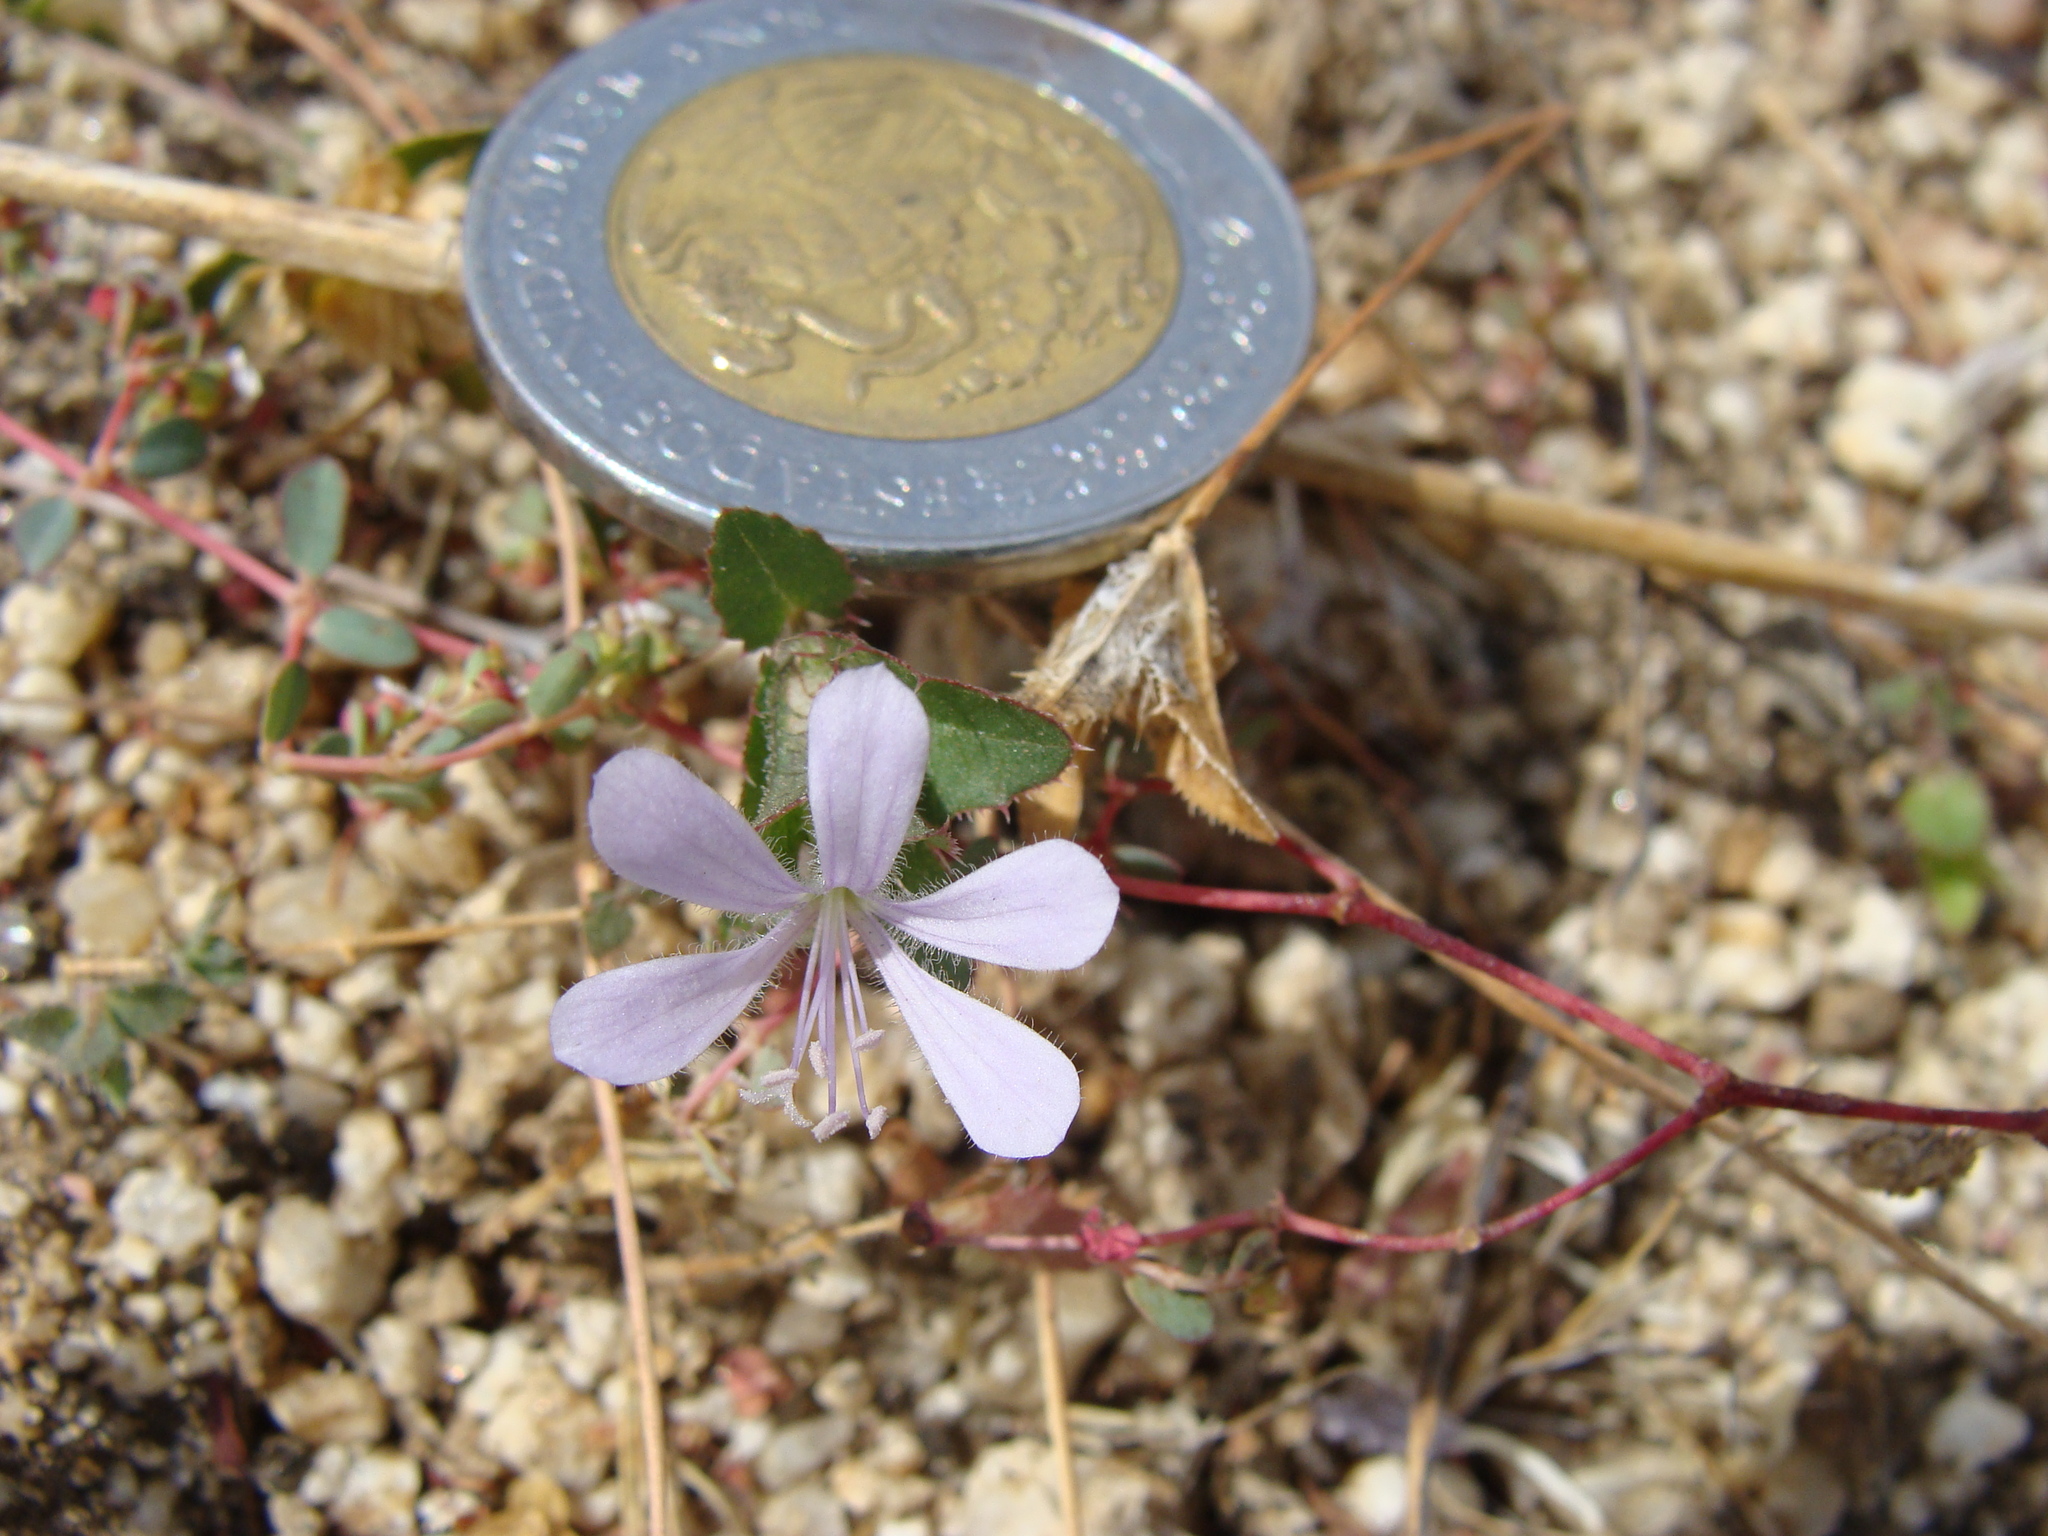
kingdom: Plantae
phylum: Tracheophyta
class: Magnoliopsida
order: Ericales
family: Polemoniaceae
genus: Loeselia
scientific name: Loeselia ciliata
